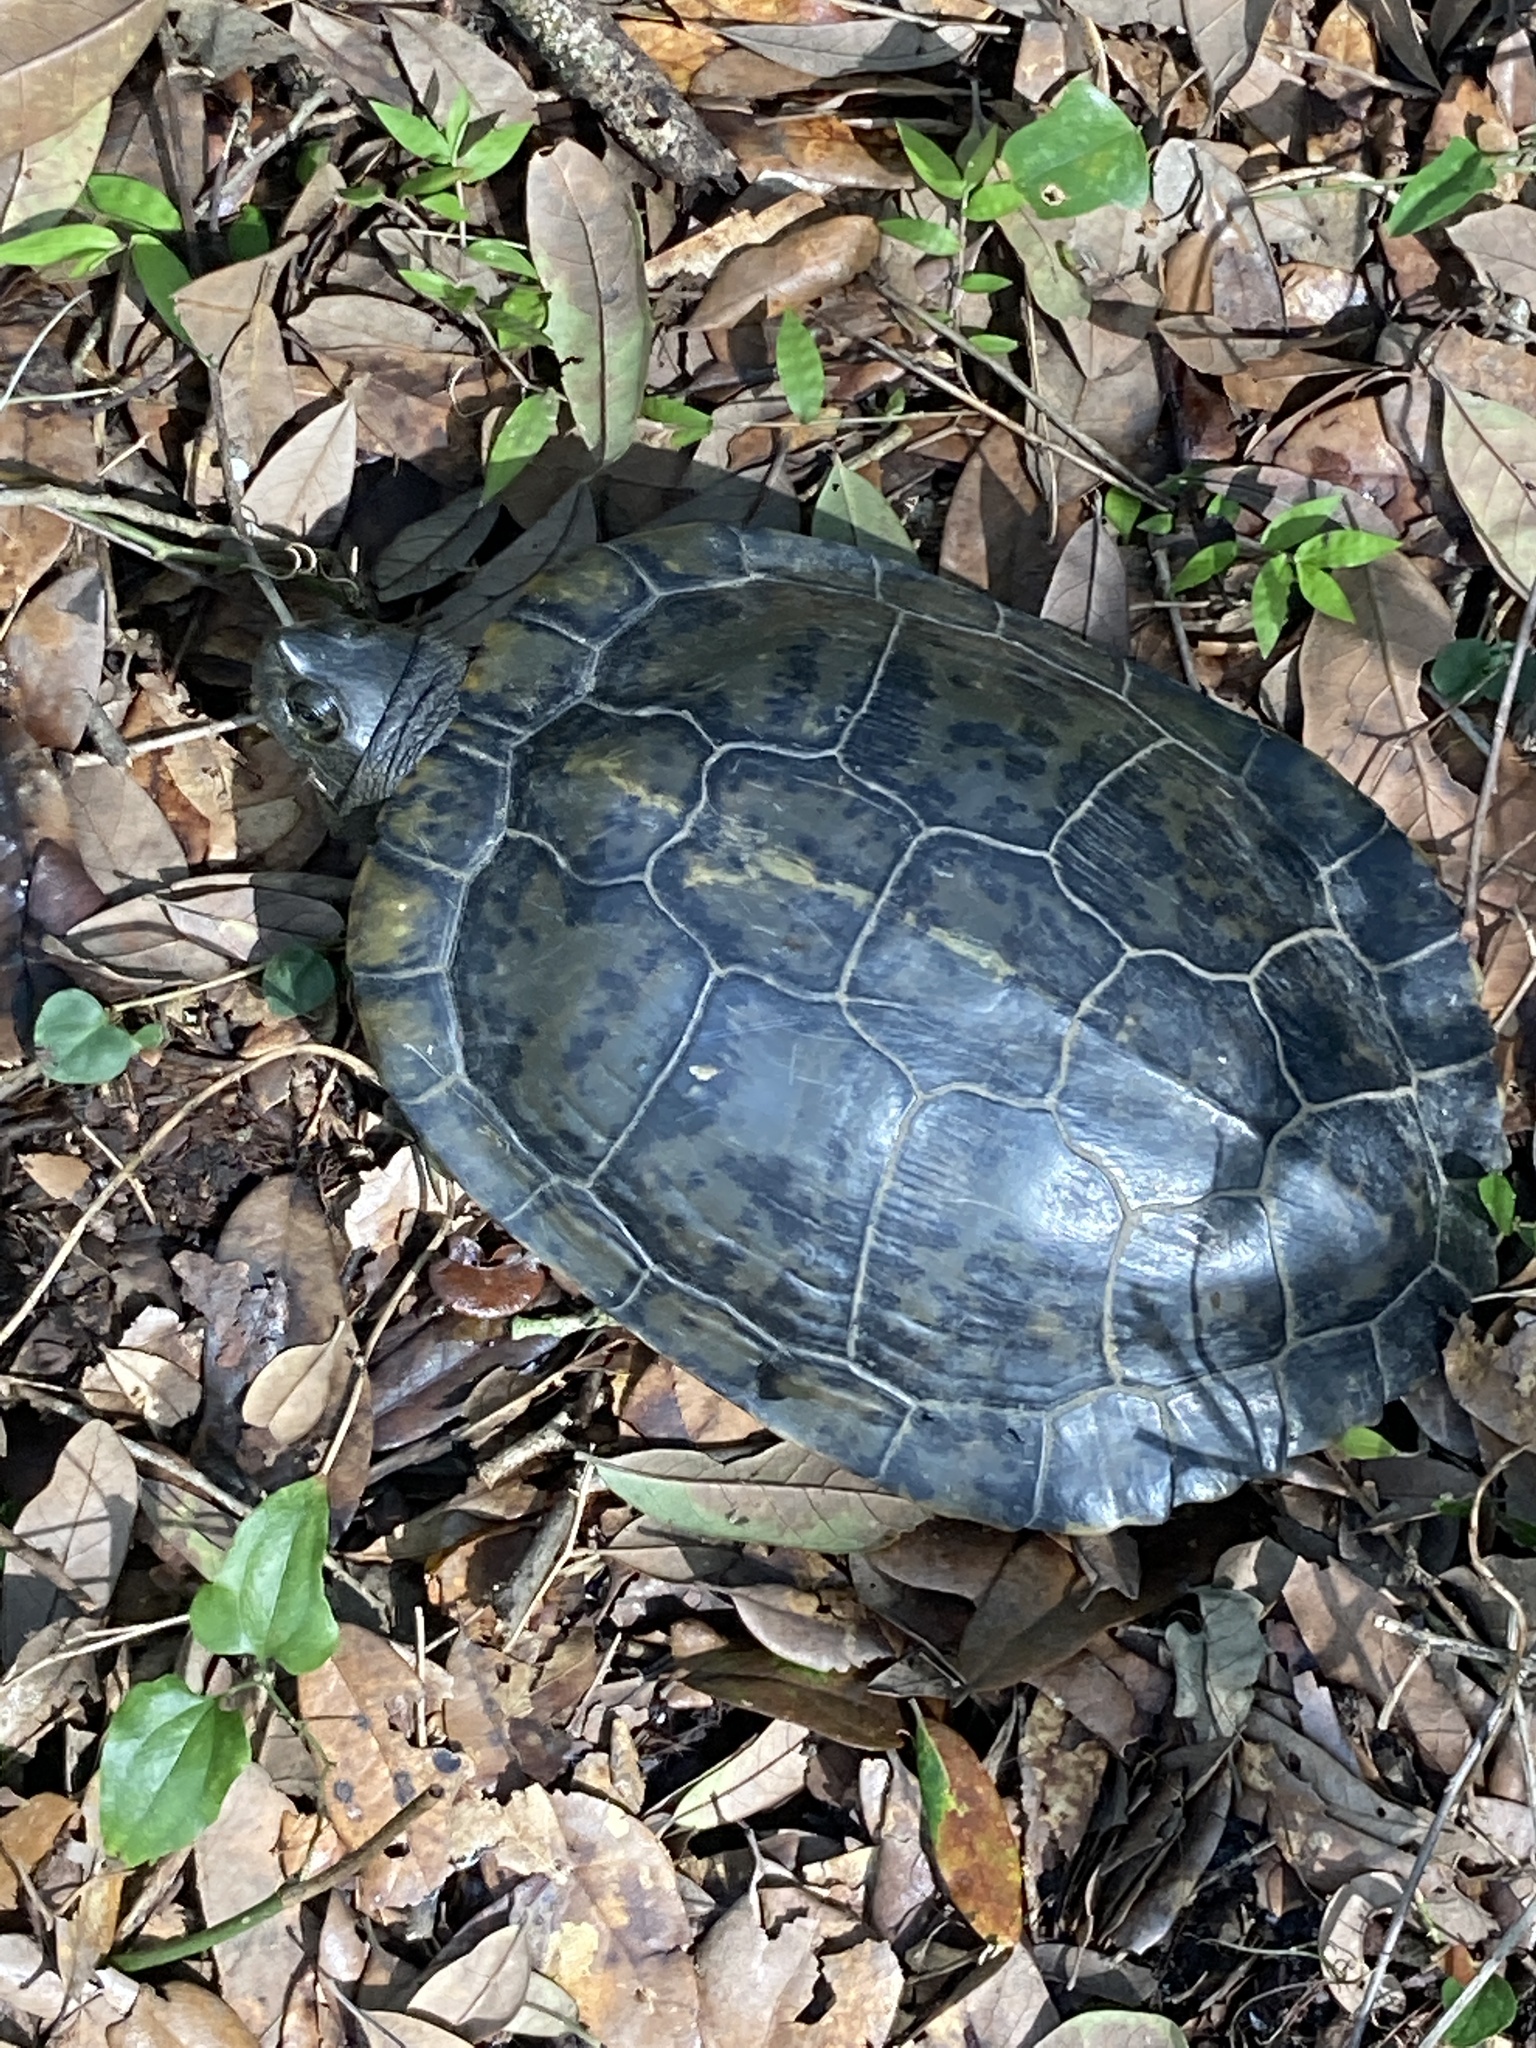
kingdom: Animalia
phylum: Chordata
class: Testudines
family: Emydidae
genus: Trachemys
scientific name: Trachemys scripta
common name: Slider
